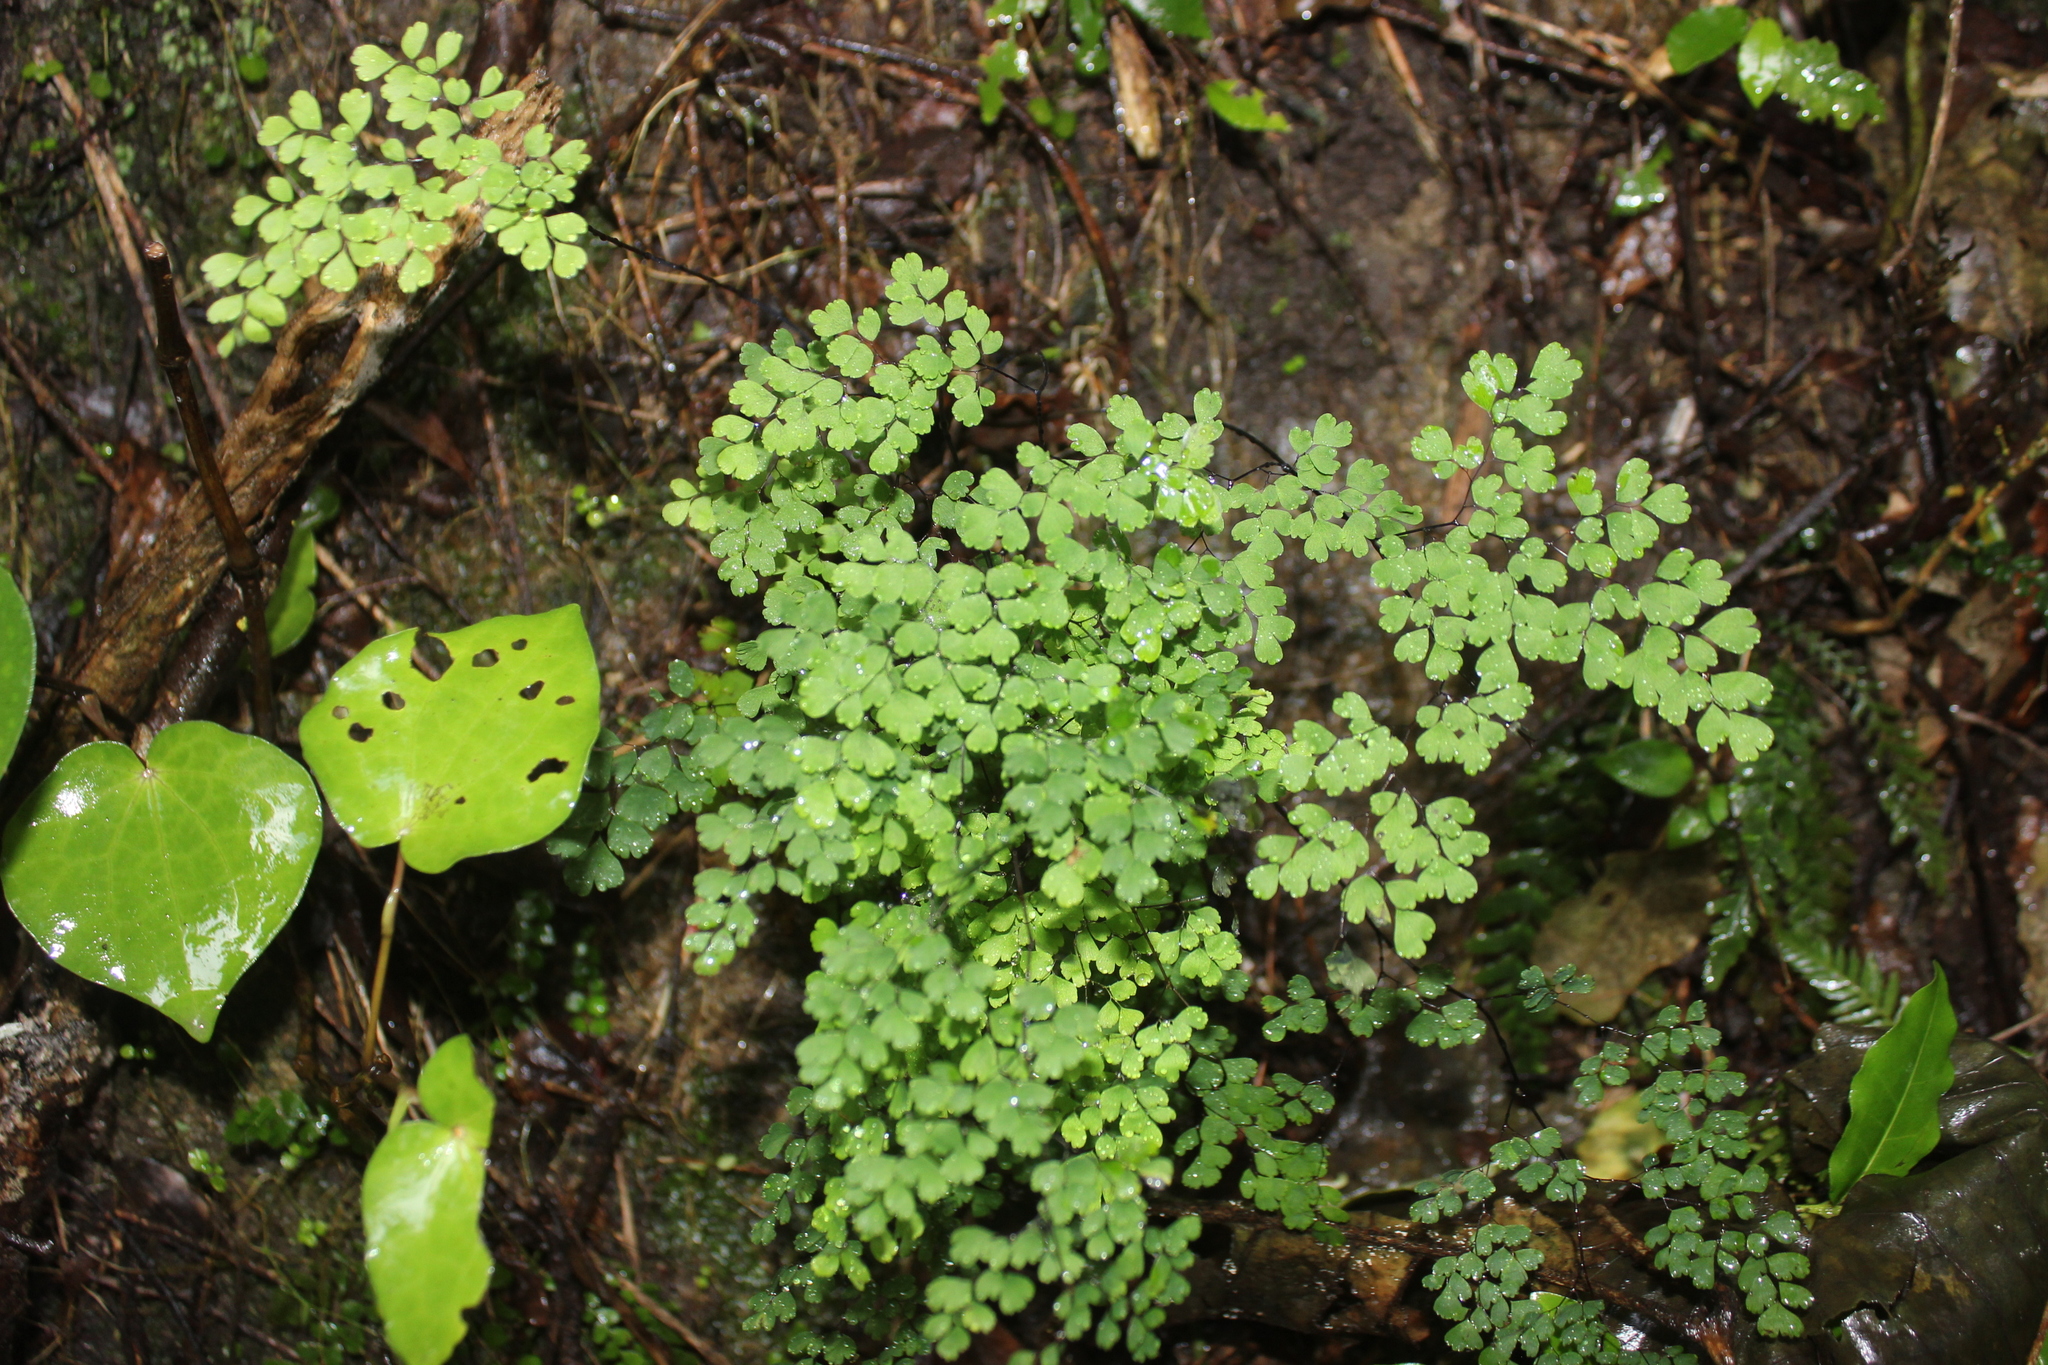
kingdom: Plantae
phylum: Tracheophyta
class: Polypodiopsida
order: Polypodiales
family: Pteridaceae
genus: Adiantum
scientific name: Adiantum raddianum
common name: Delta maidenhair fern
